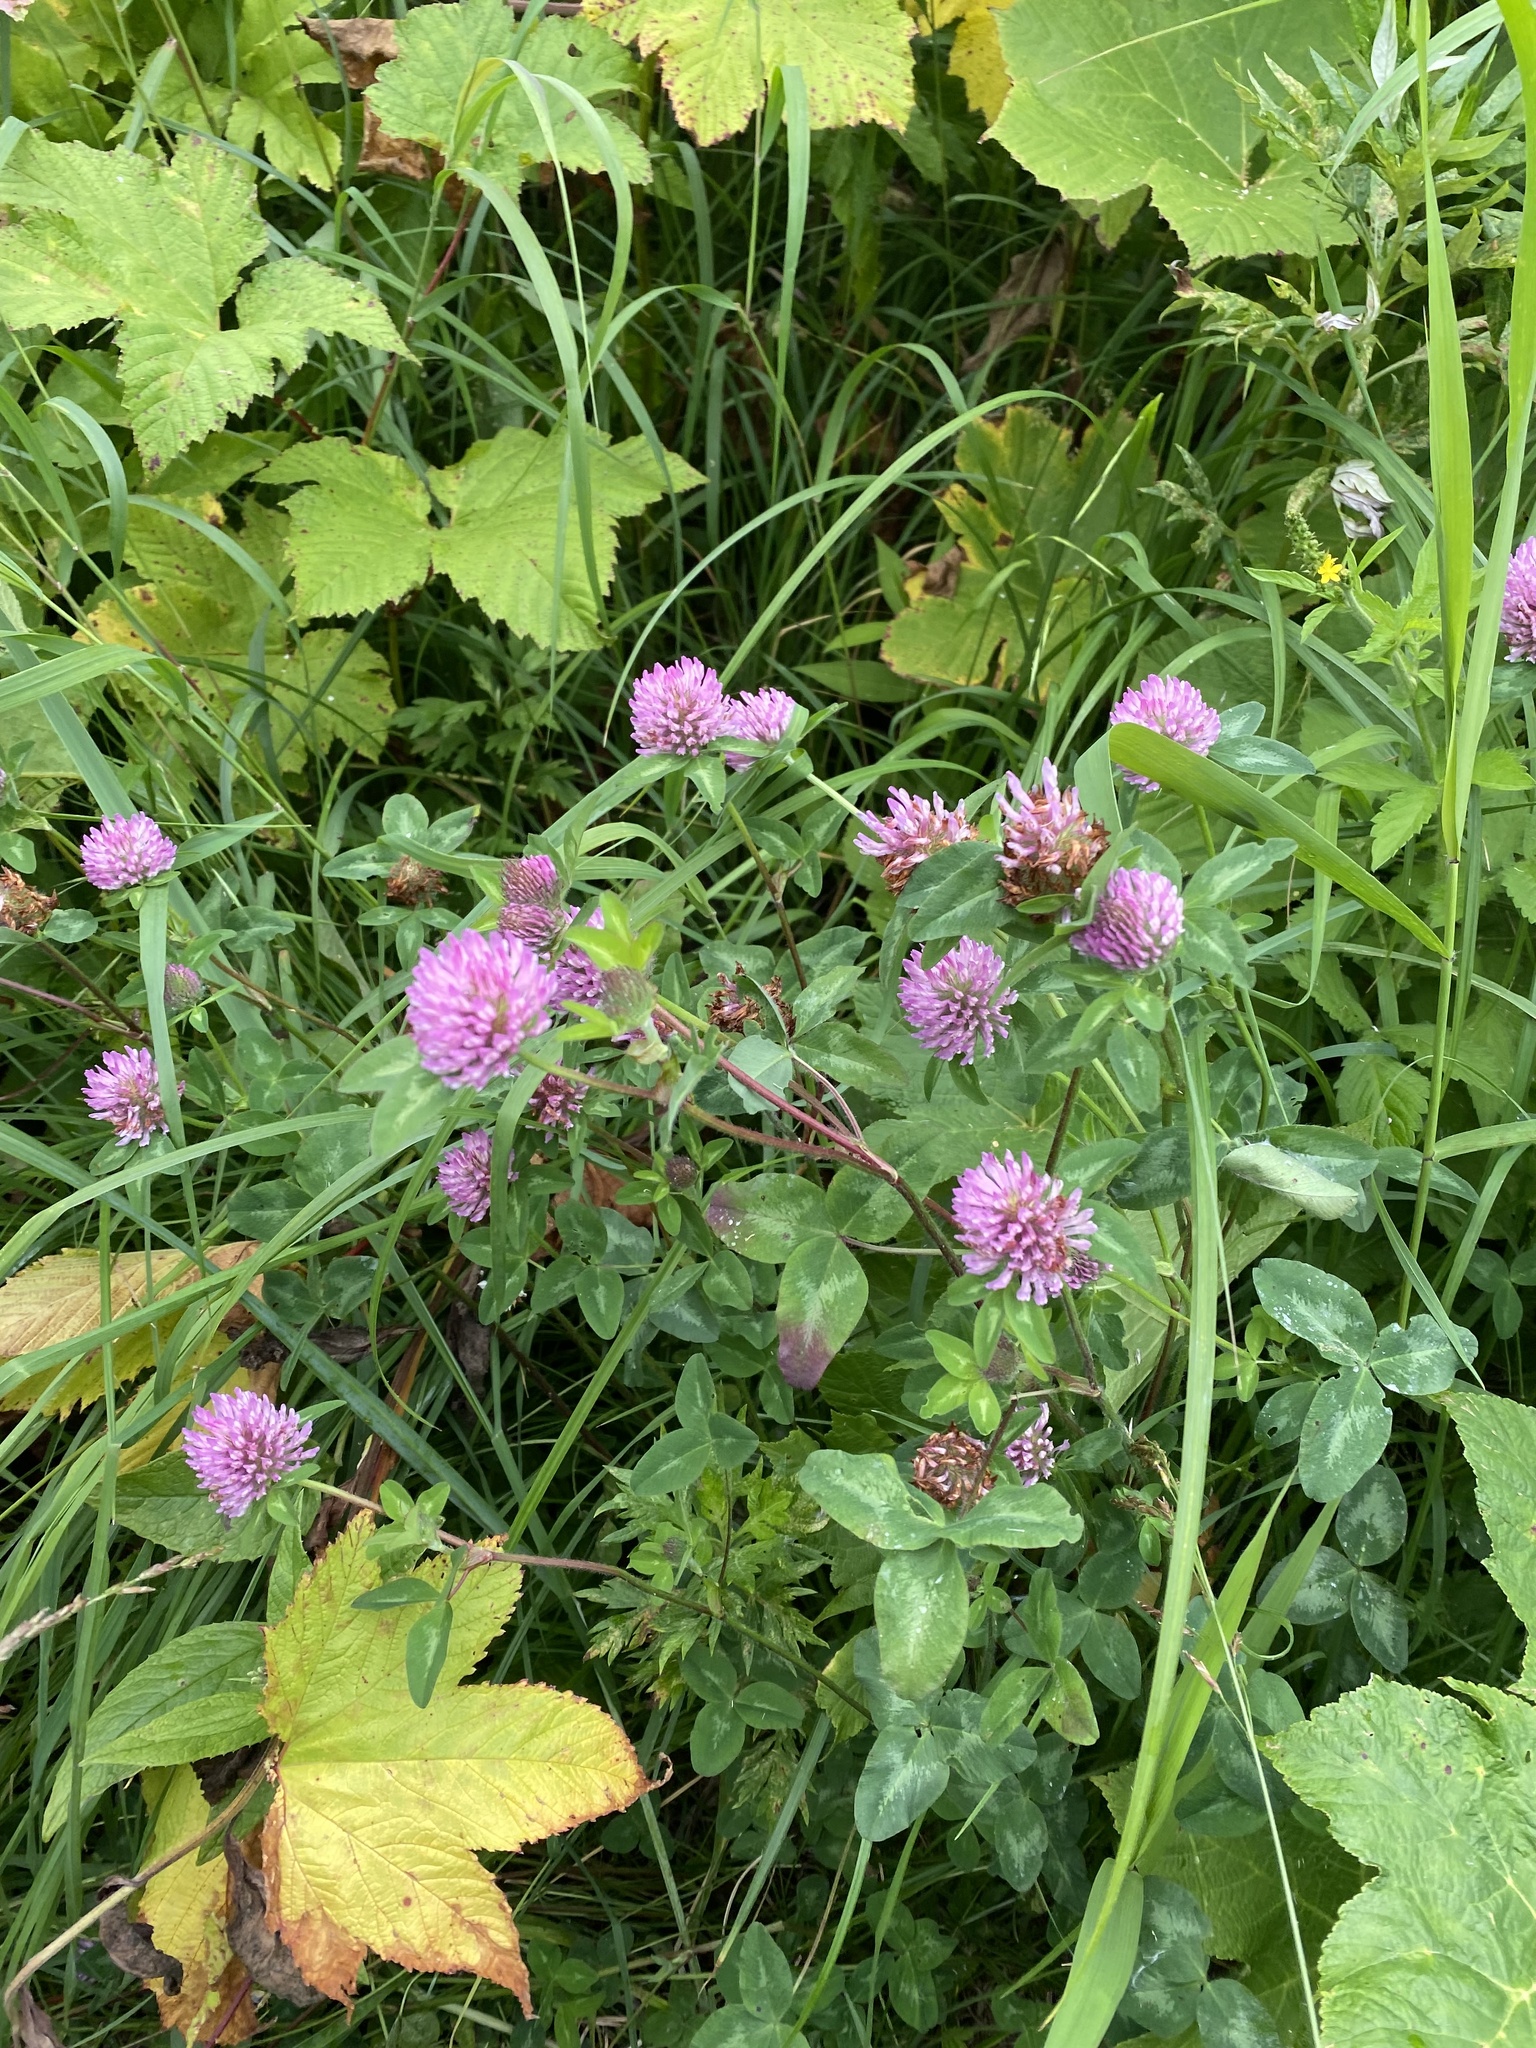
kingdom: Plantae
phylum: Tracheophyta
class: Magnoliopsida
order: Fabales
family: Fabaceae
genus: Trifolium
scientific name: Trifolium pratense
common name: Red clover
